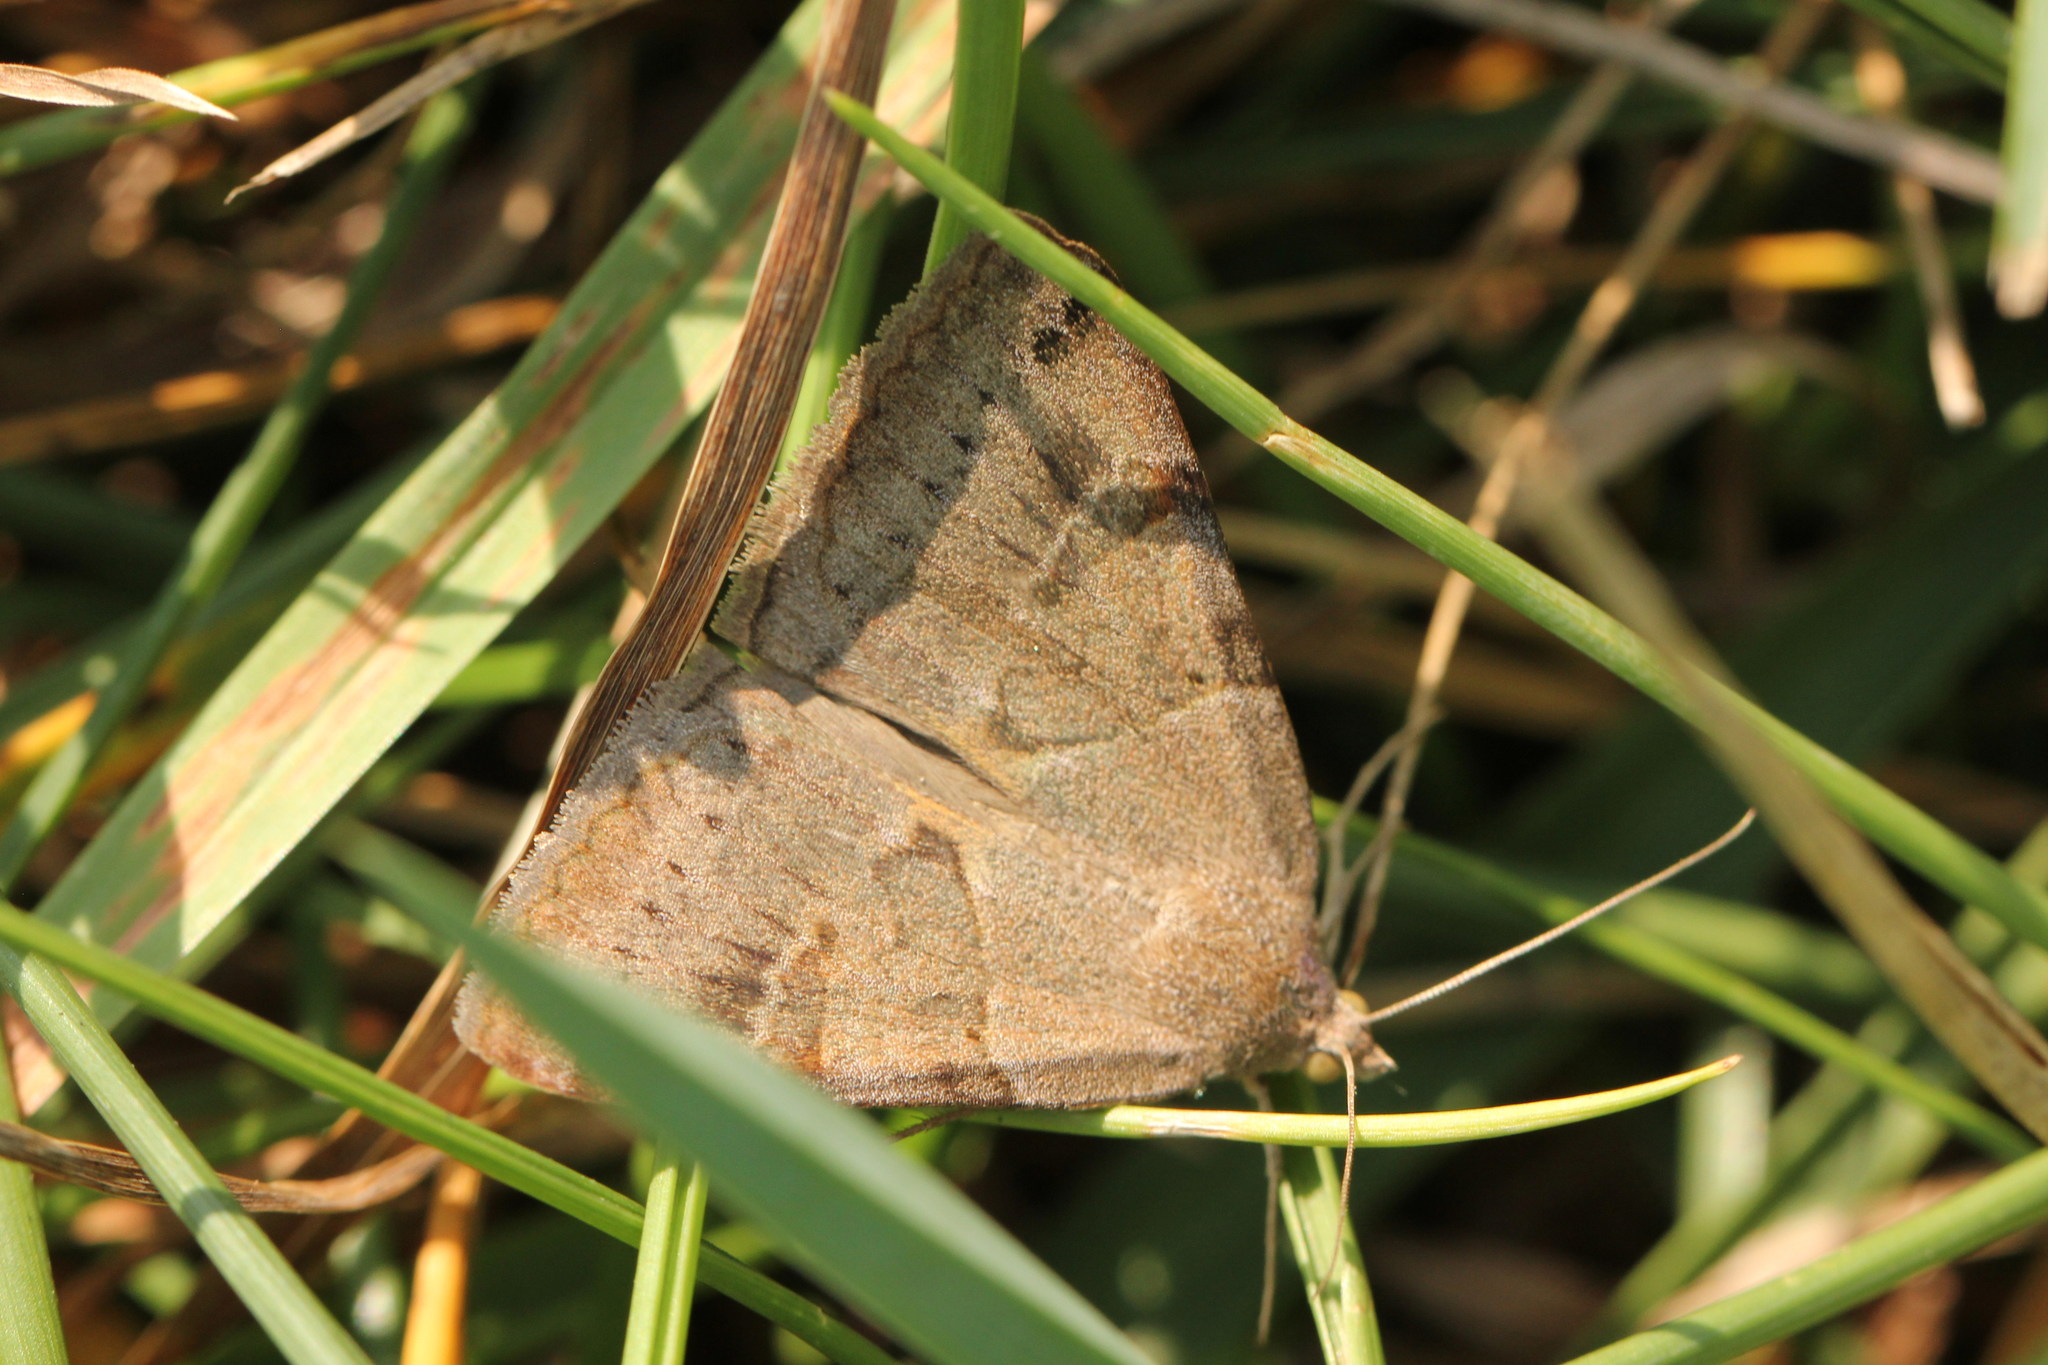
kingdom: Animalia
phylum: Arthropoda
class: Insecta
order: Lepidoptera
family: Erebidae
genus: Caenurgina
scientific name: Caenurgina erechtea
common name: Forage looper moth
